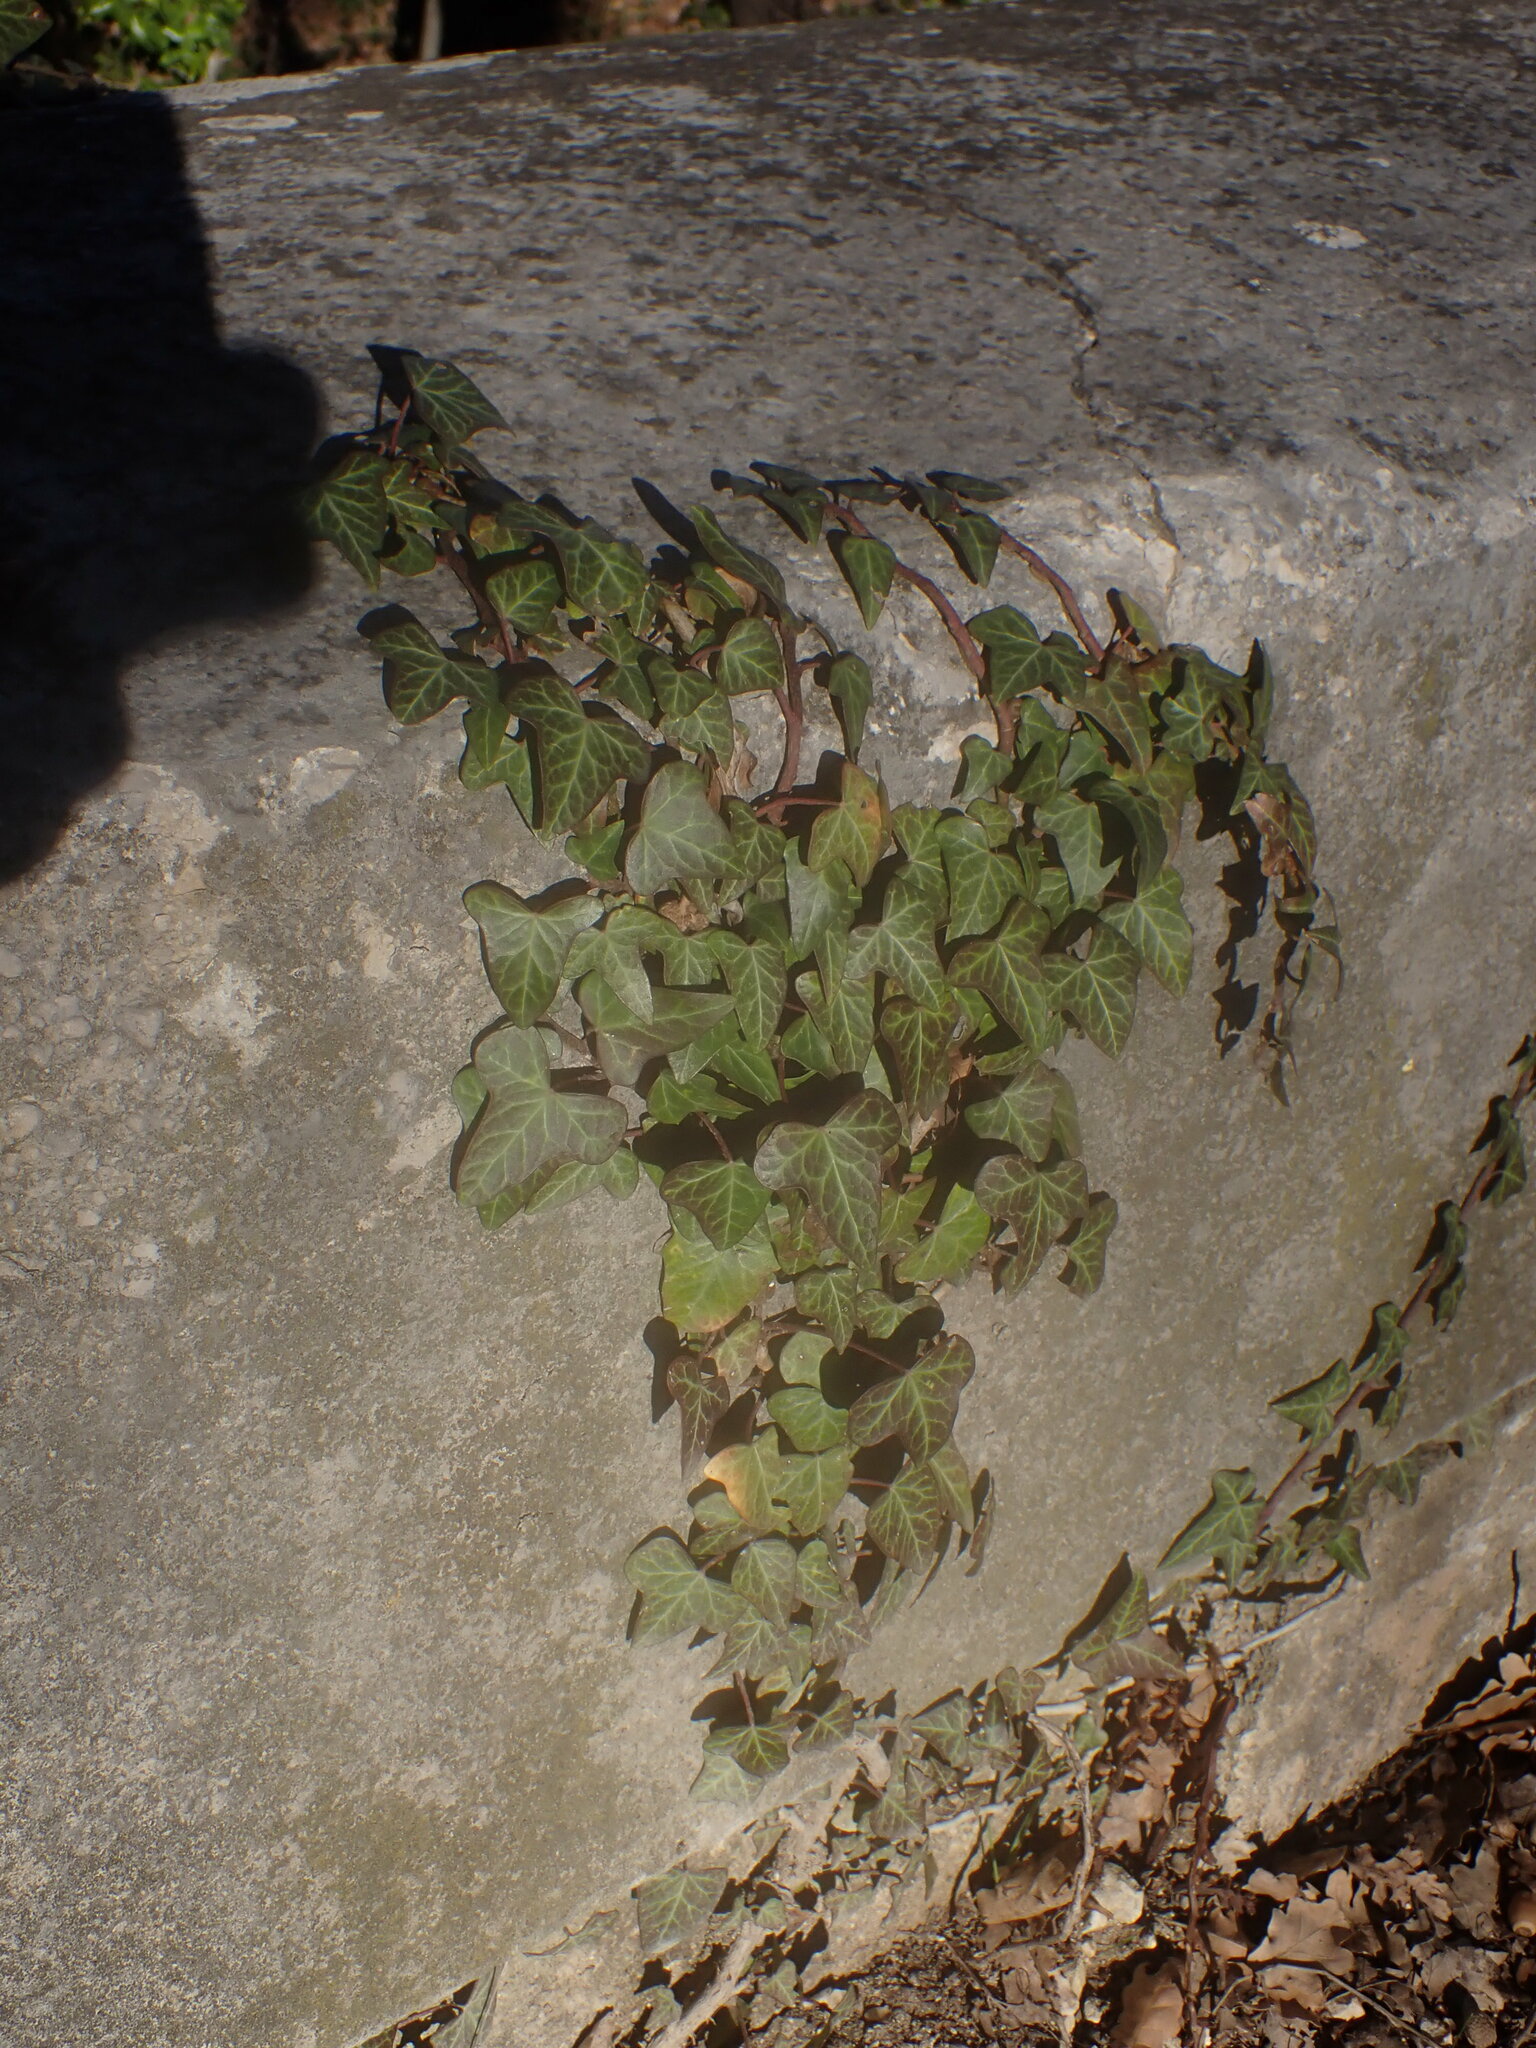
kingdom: Plantae
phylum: Tracheophyta
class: Magnoliopsida
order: Apiales
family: Araliaceae
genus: Hedera
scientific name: Hedera helix
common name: Ivy
